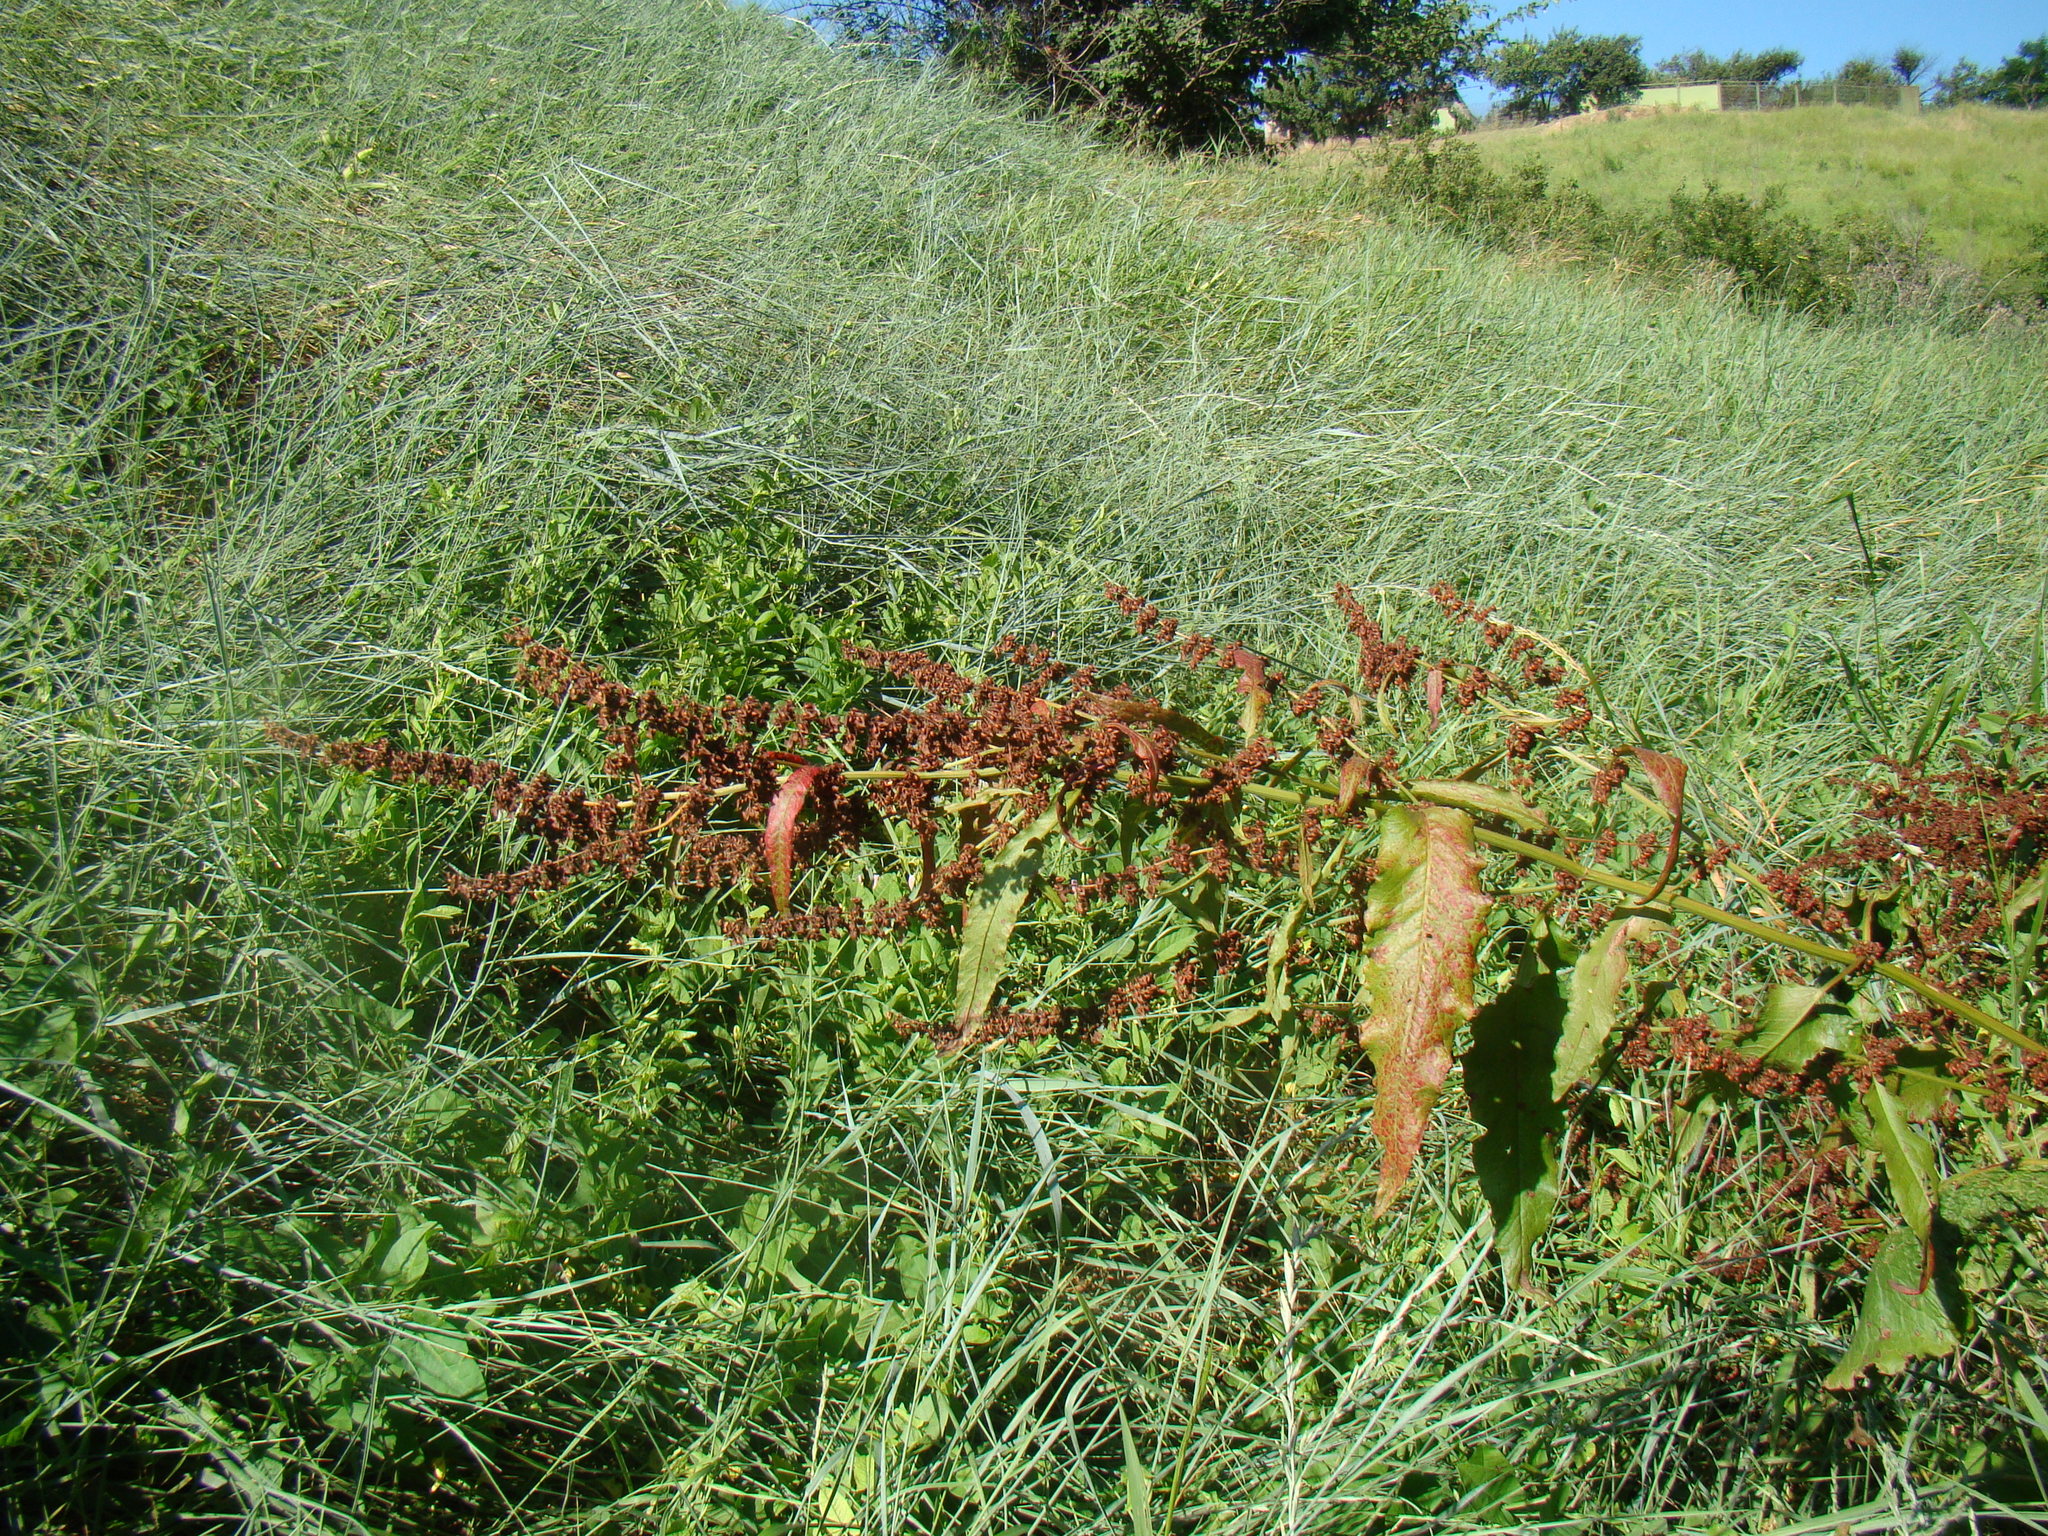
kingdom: Plantae
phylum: Tracheophyta
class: Magnoliopsida
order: Caryophyllales
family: Polygonaceae
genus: Rumex
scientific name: Rumex obtusifolius
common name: Bitter dock
